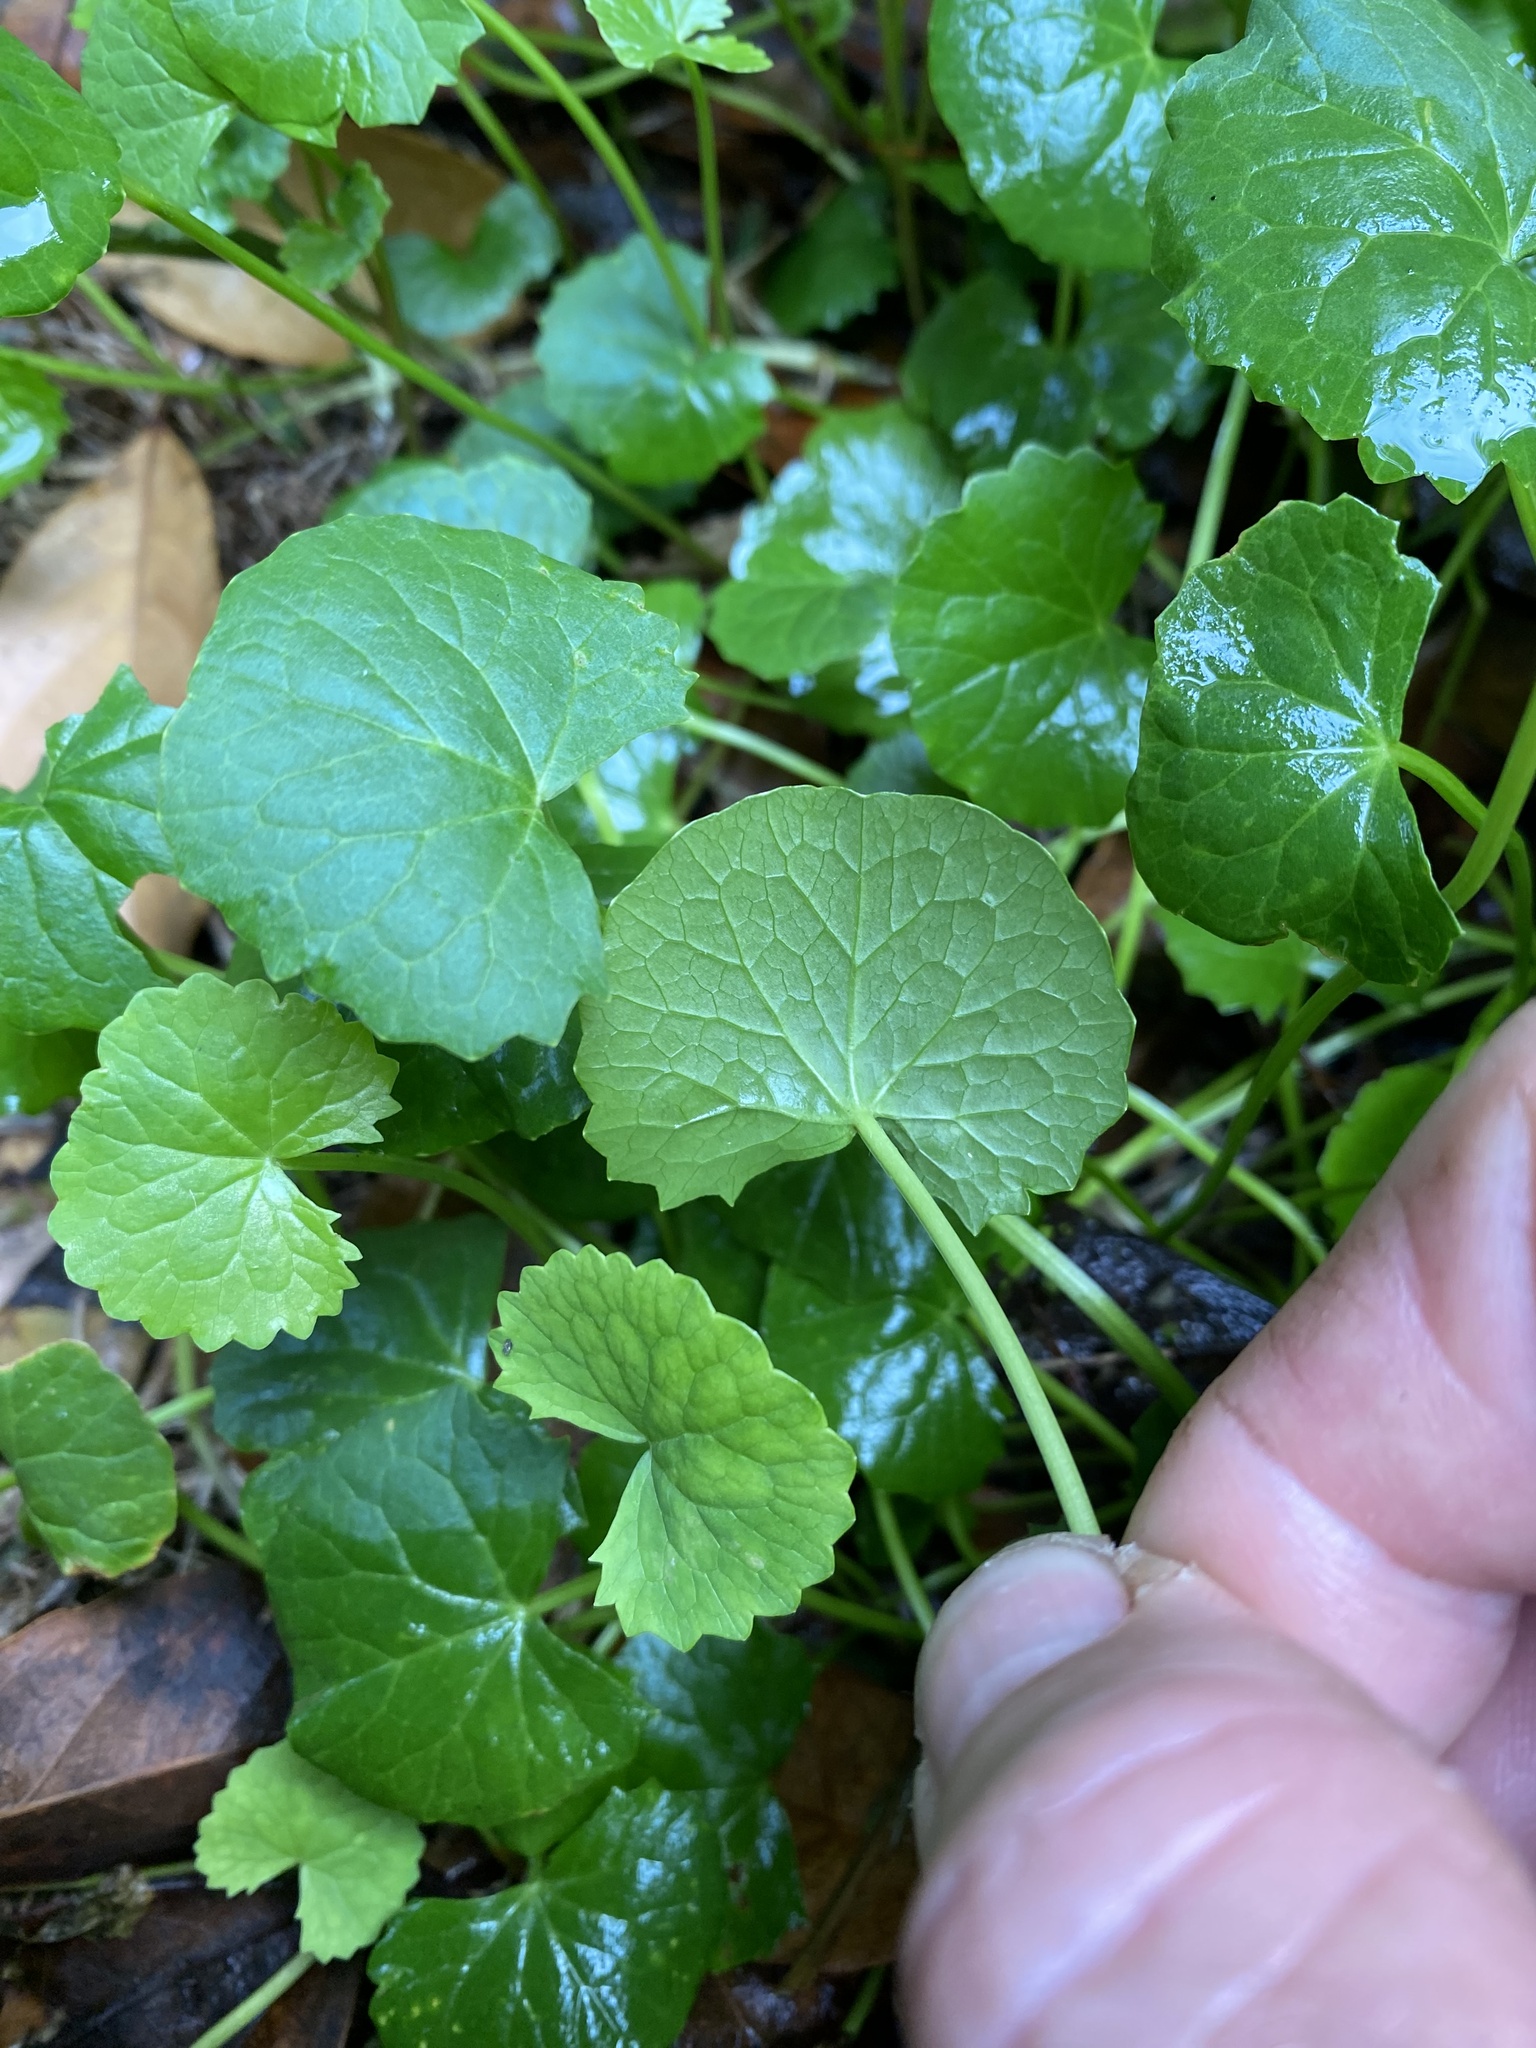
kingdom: Plantae
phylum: Tracheophyta
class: Magnoliopsida
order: Apiales
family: Apiaceae
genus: Centella
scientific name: Centella asiatica
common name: Spadeleaf
